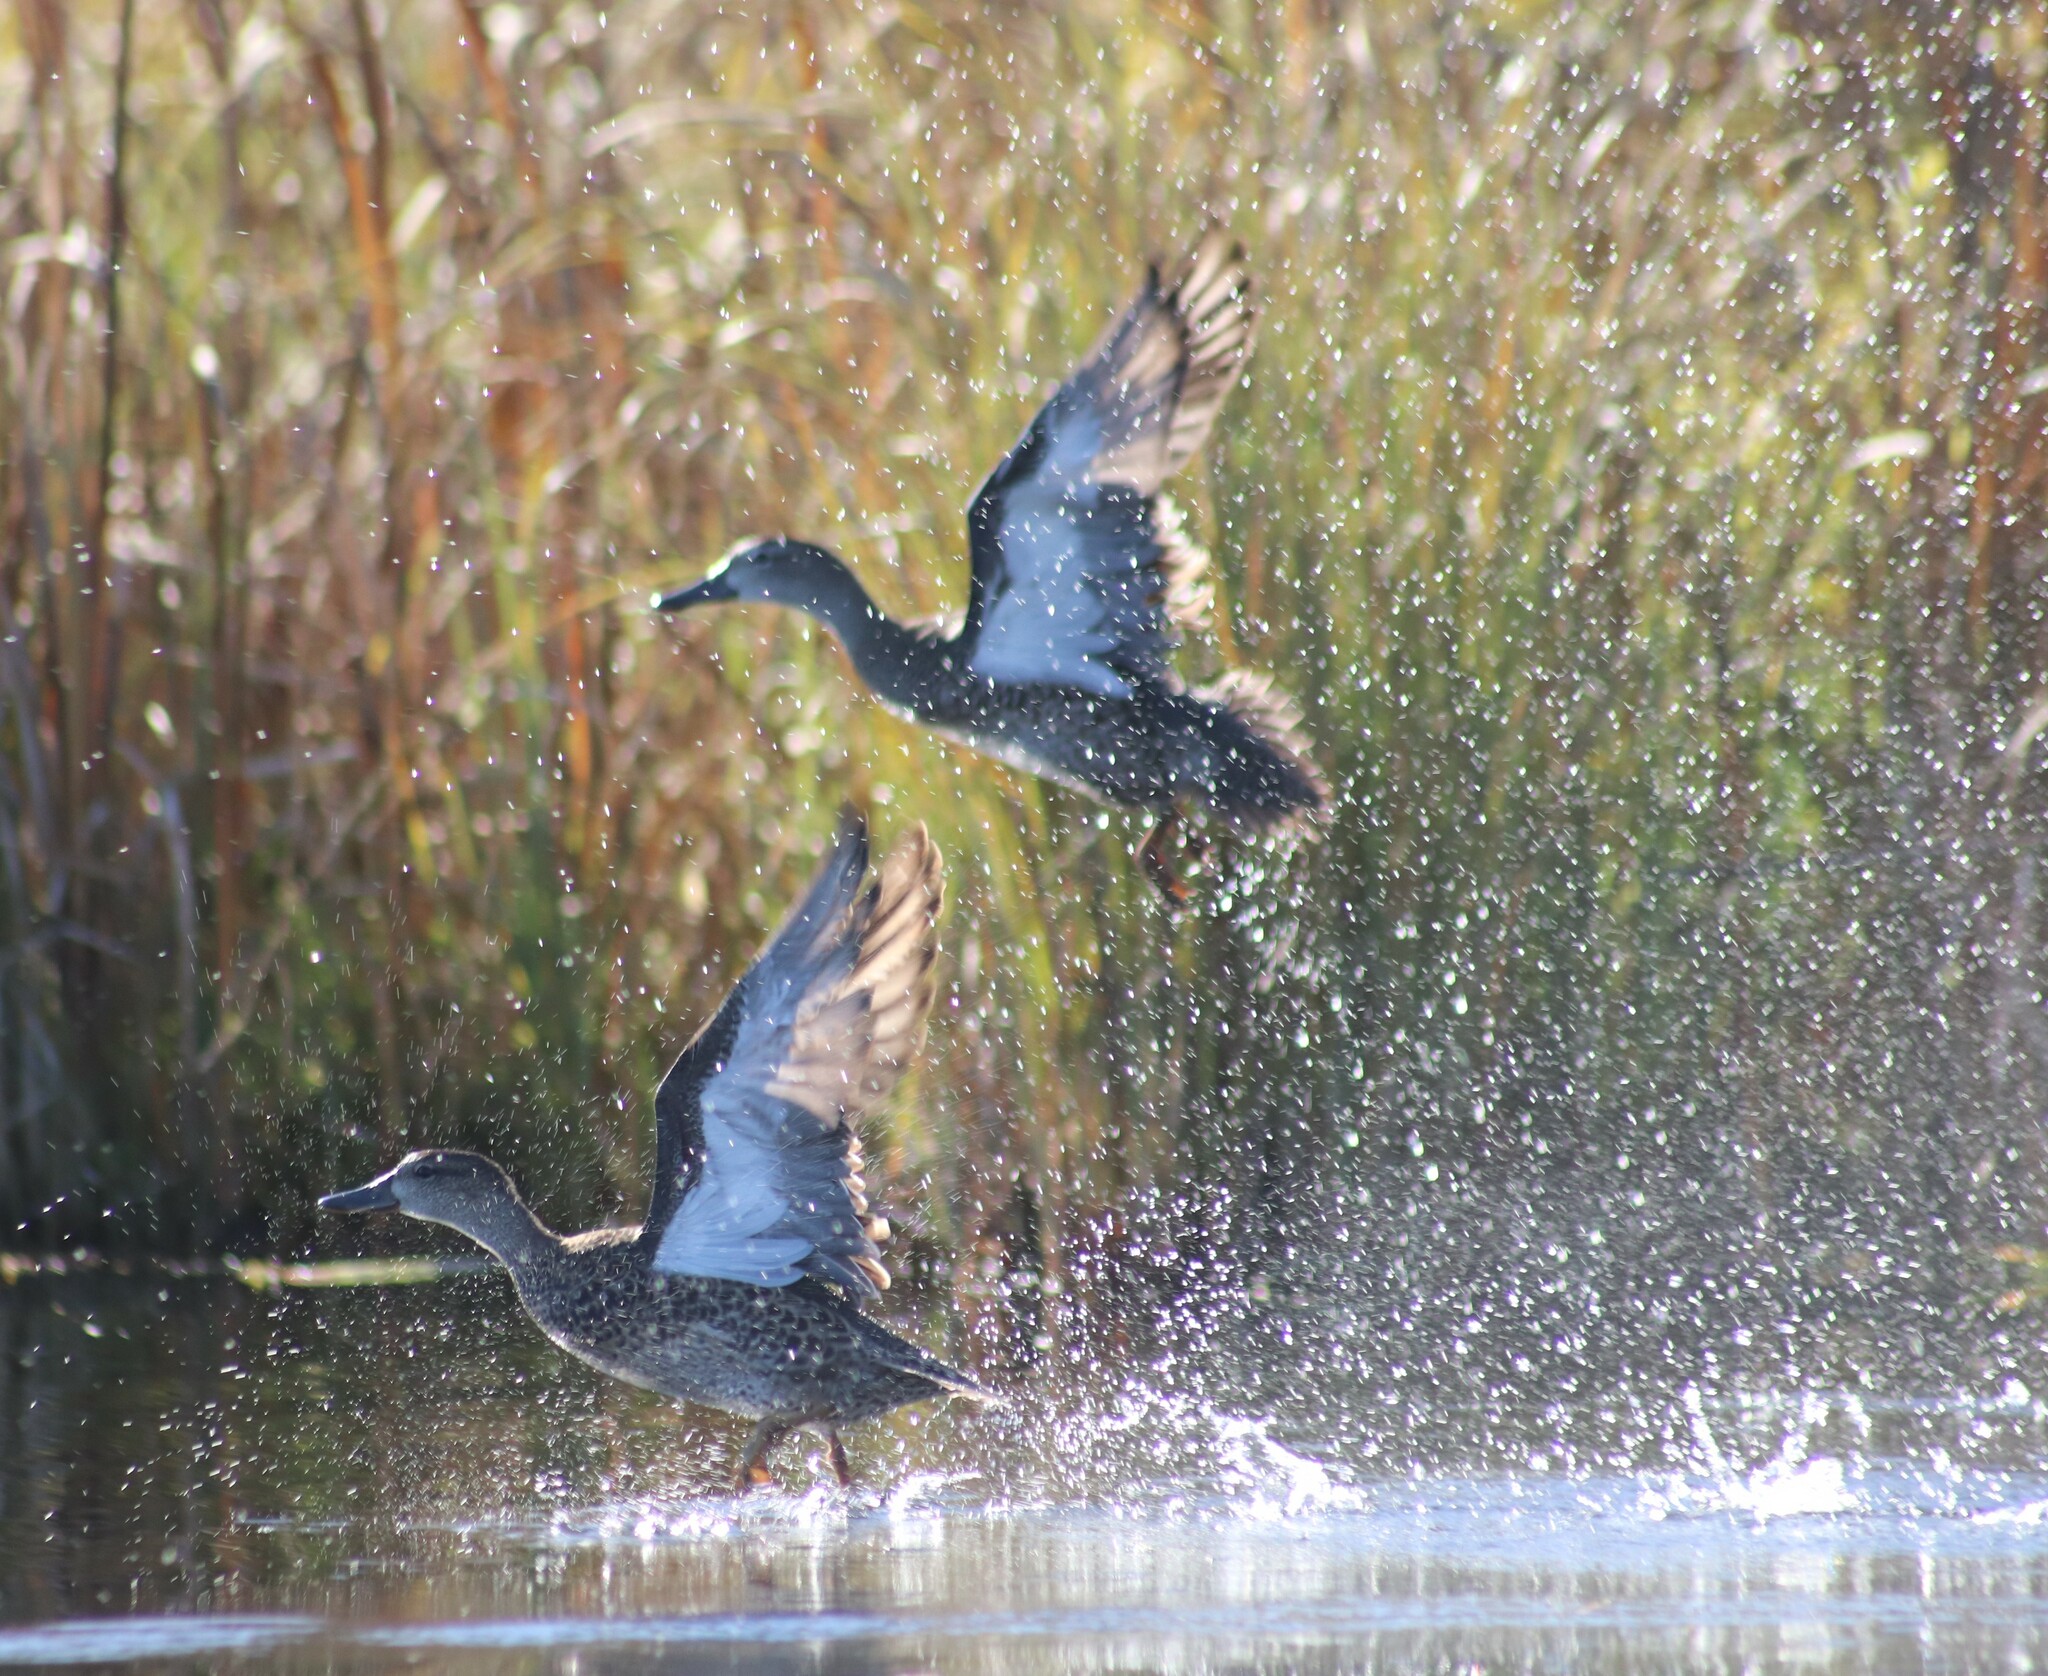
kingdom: Animalia
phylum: Chordata
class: Aves
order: Anseriformes
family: Anatidae
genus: Spatula
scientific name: Spatula discors
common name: Blue-winged teal
